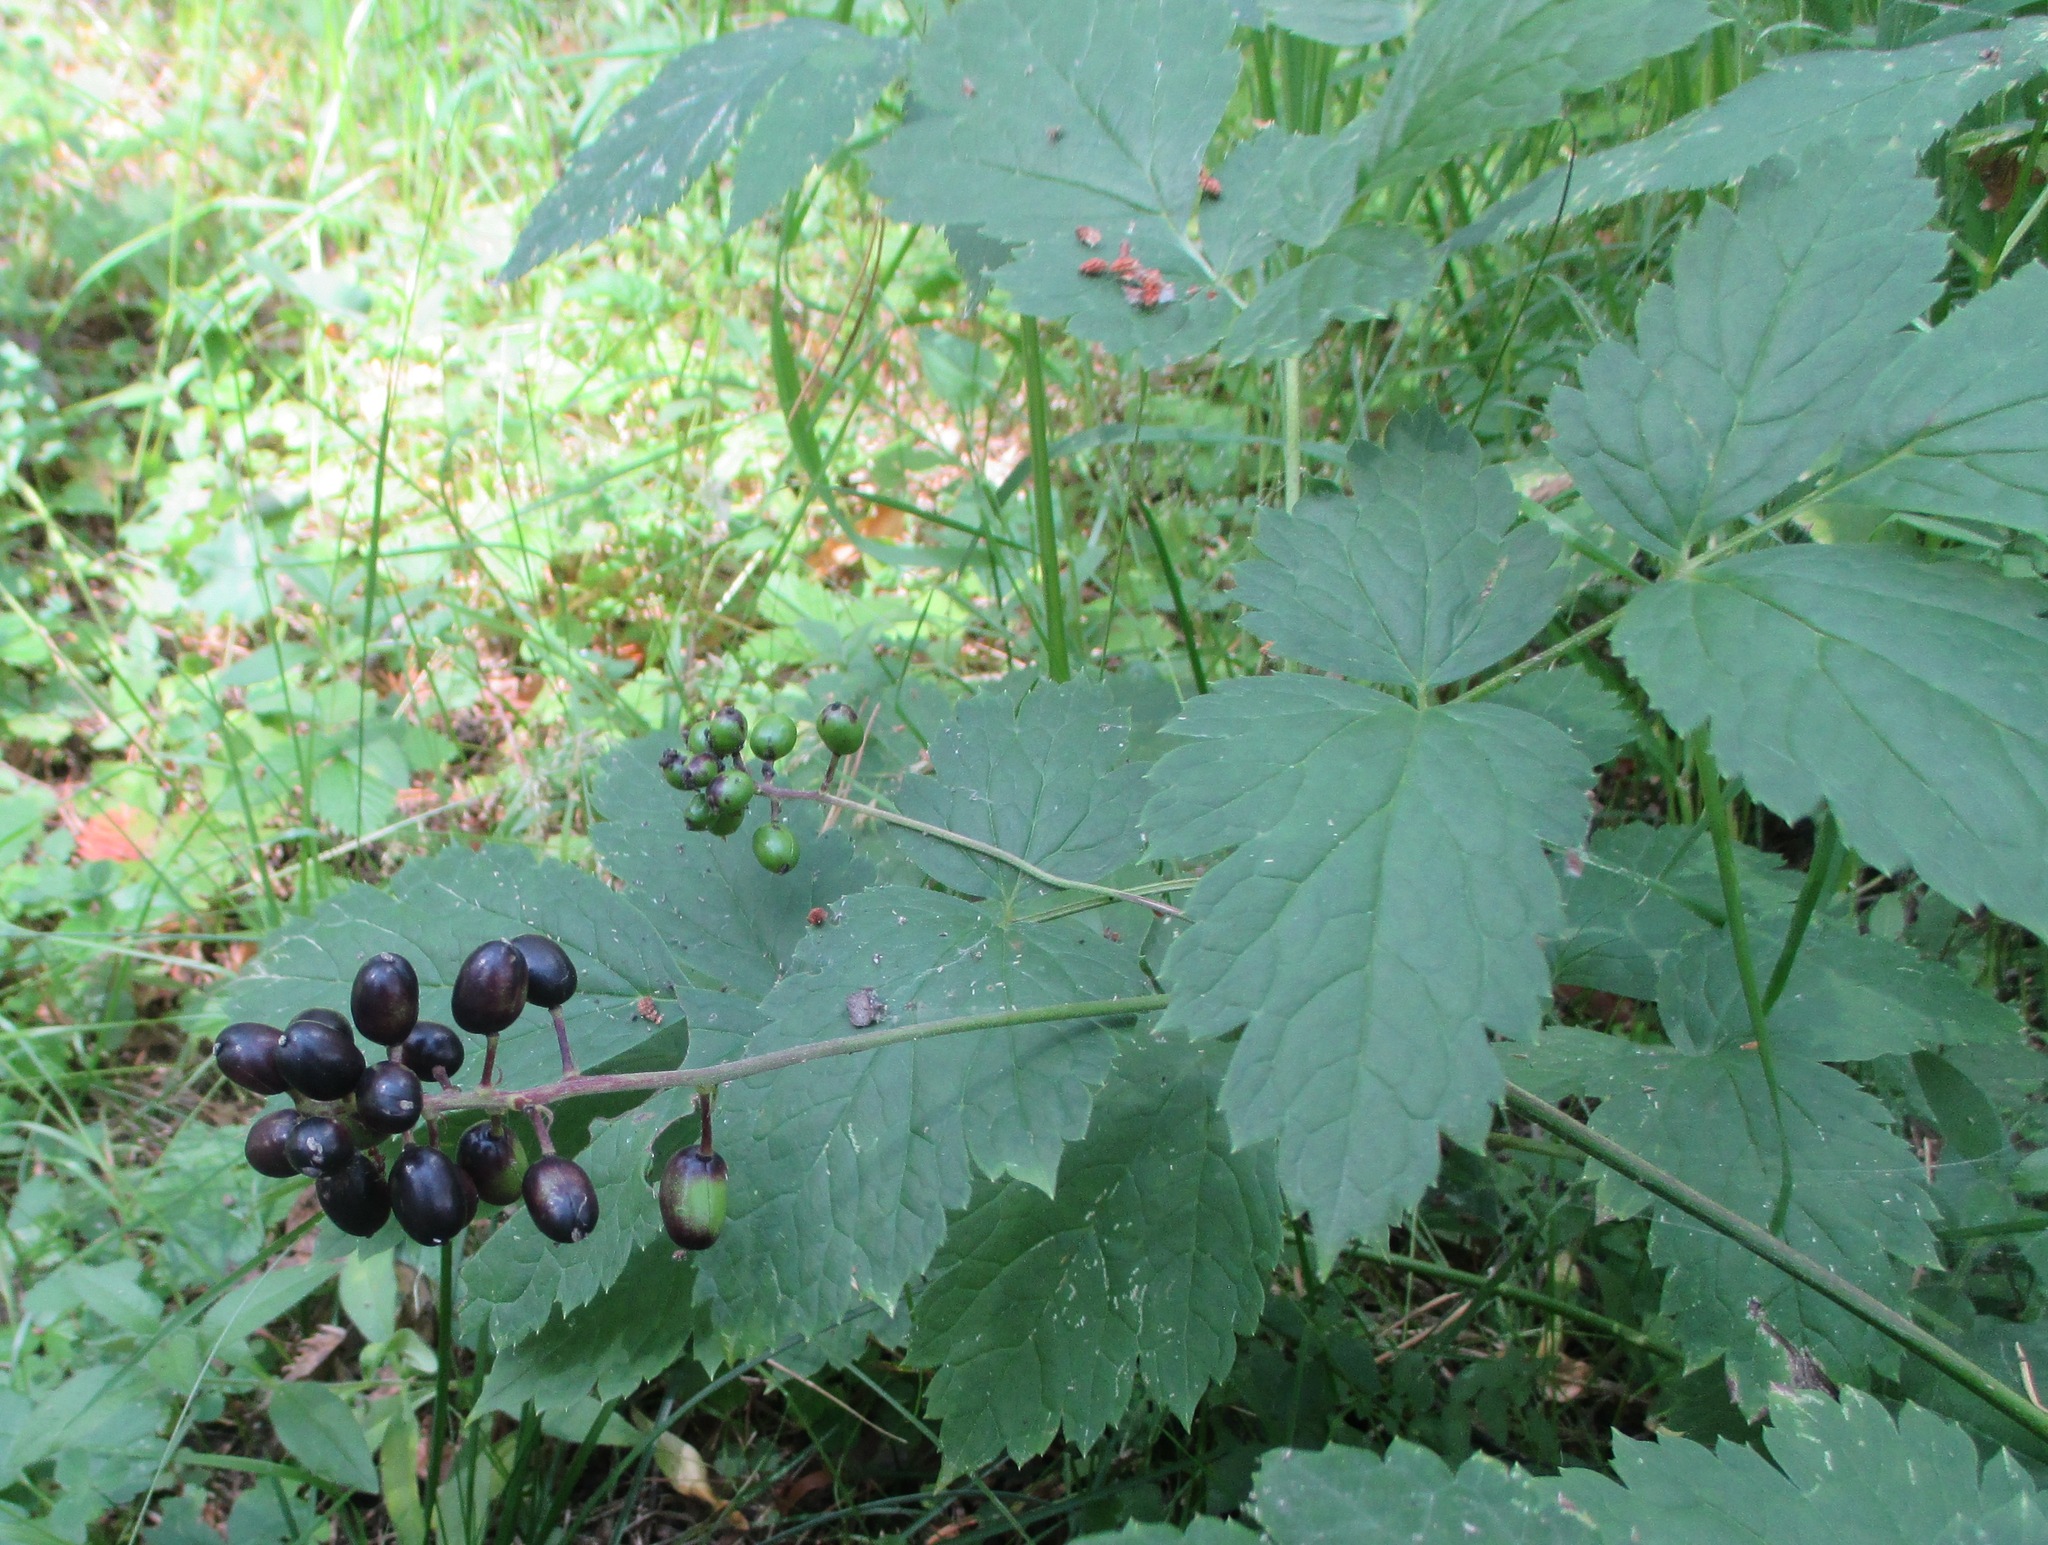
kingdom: Plantae
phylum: Tracheophyta
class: Magnoliopsida
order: Ranunculales
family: Ranunculaceae
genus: Actaea
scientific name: Actaea spicata
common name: Baneberry
